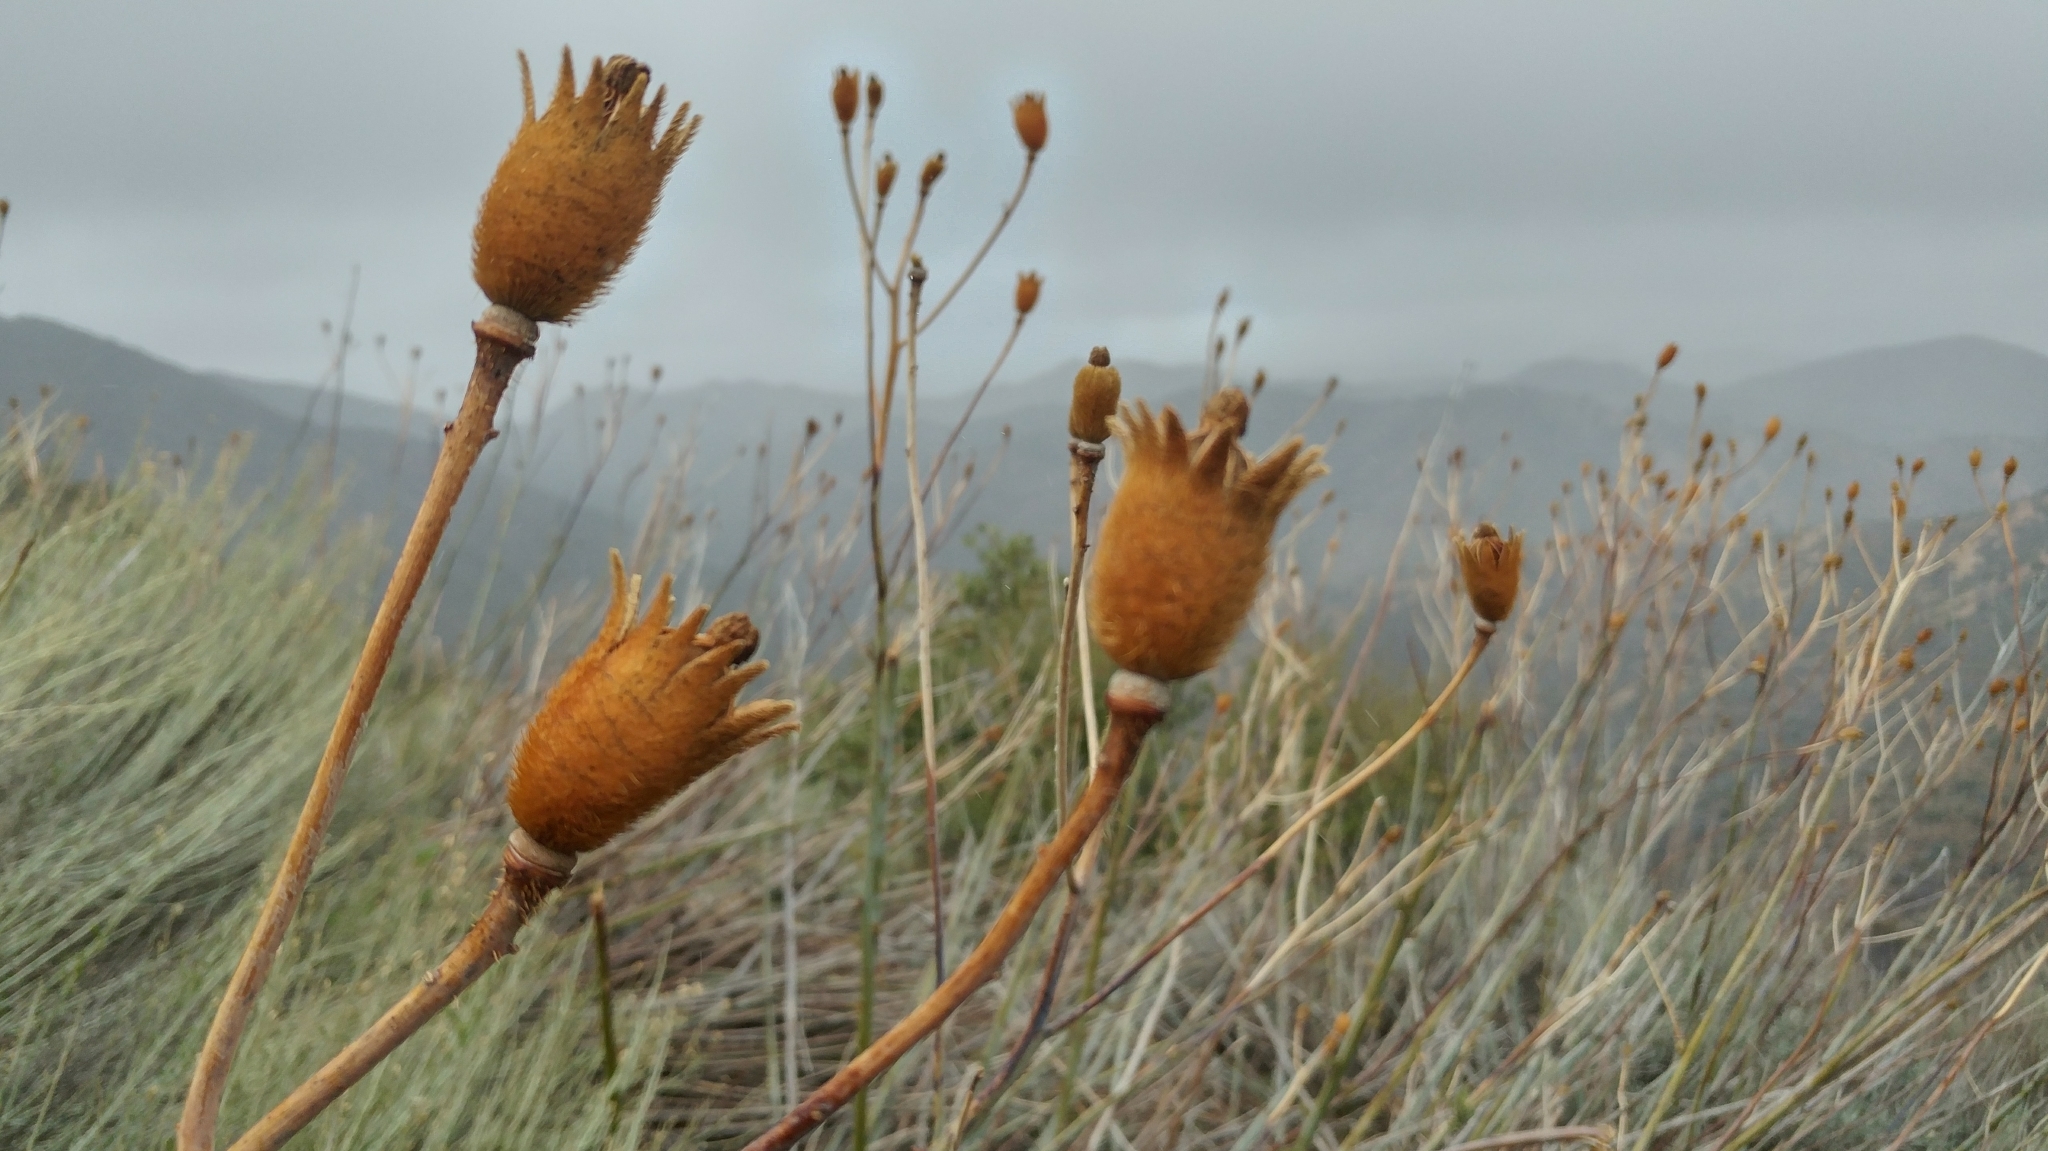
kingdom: Plantae
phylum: Tracheophyta
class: Magnoliopsida
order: Ranunculales
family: Papaveraceae
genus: Romneya
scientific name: Romneya trichocalyx
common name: Hairy matilija-poppy
